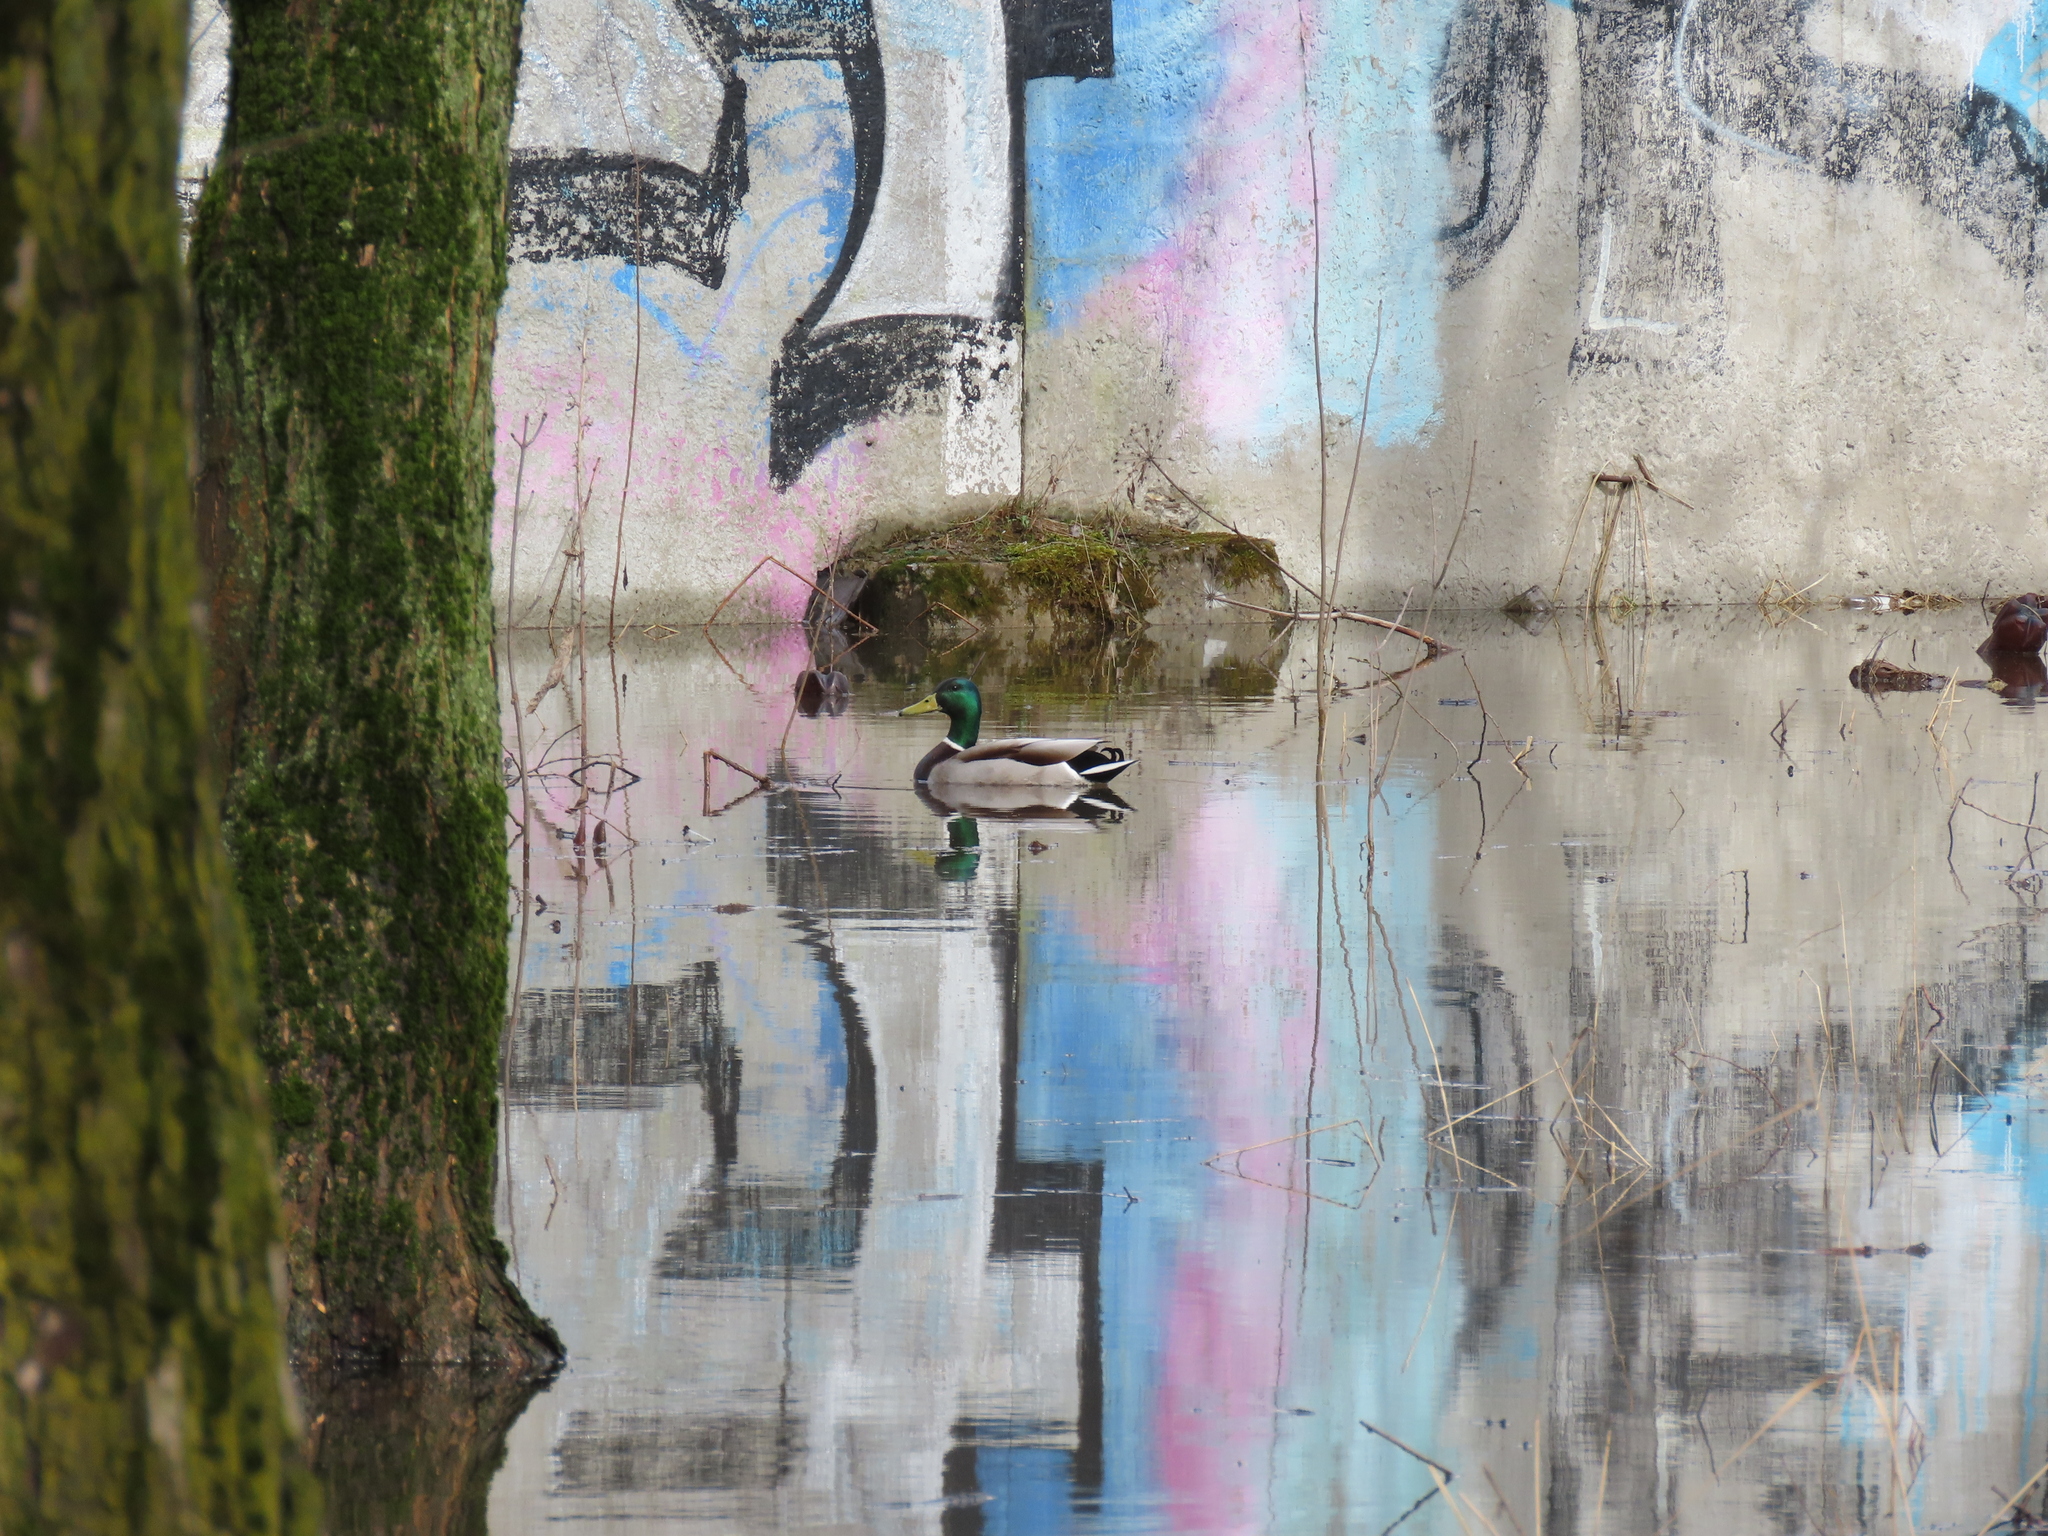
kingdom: Animalia
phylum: Chordata
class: Aves
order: Anseriformes
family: Anatidae
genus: Anas
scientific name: Anas platyrhynchos
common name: Mallard
